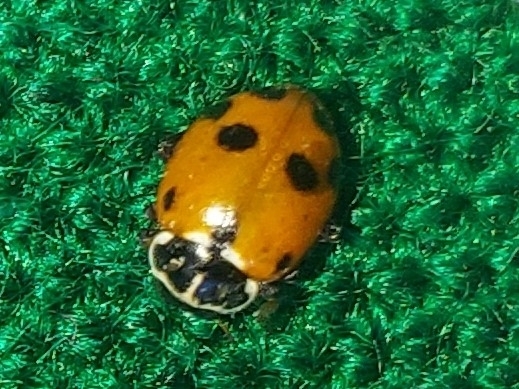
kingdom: Animalia
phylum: Arthropoda
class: Insecta
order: Coleoptera
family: Coccinellidae
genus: Hippodamia
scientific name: Hippodamia variegata
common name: Ladybird beetle
